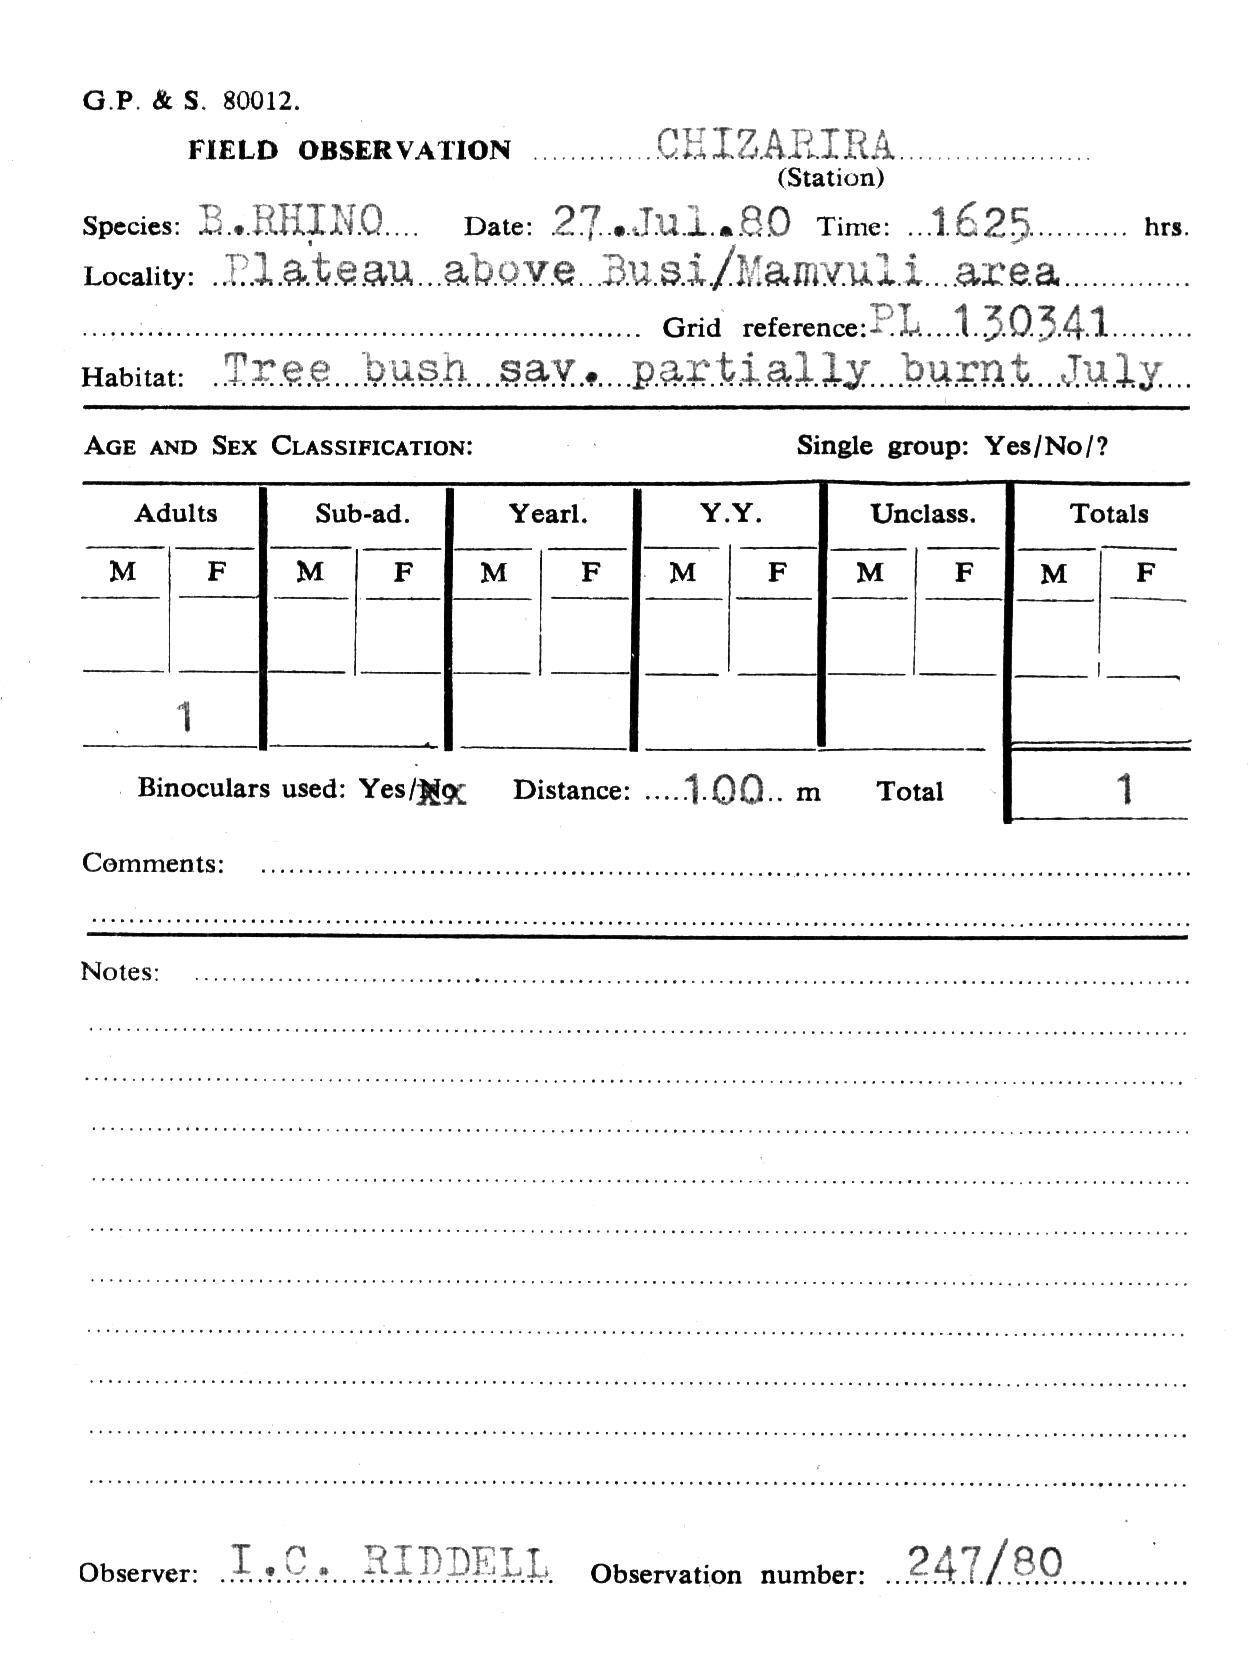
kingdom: Animalia
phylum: Chordata
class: Mammalia
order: Perissodactyla
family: Rhinocerotidae
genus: Diceros
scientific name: Diceros bicornis
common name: Black rhinoceros
